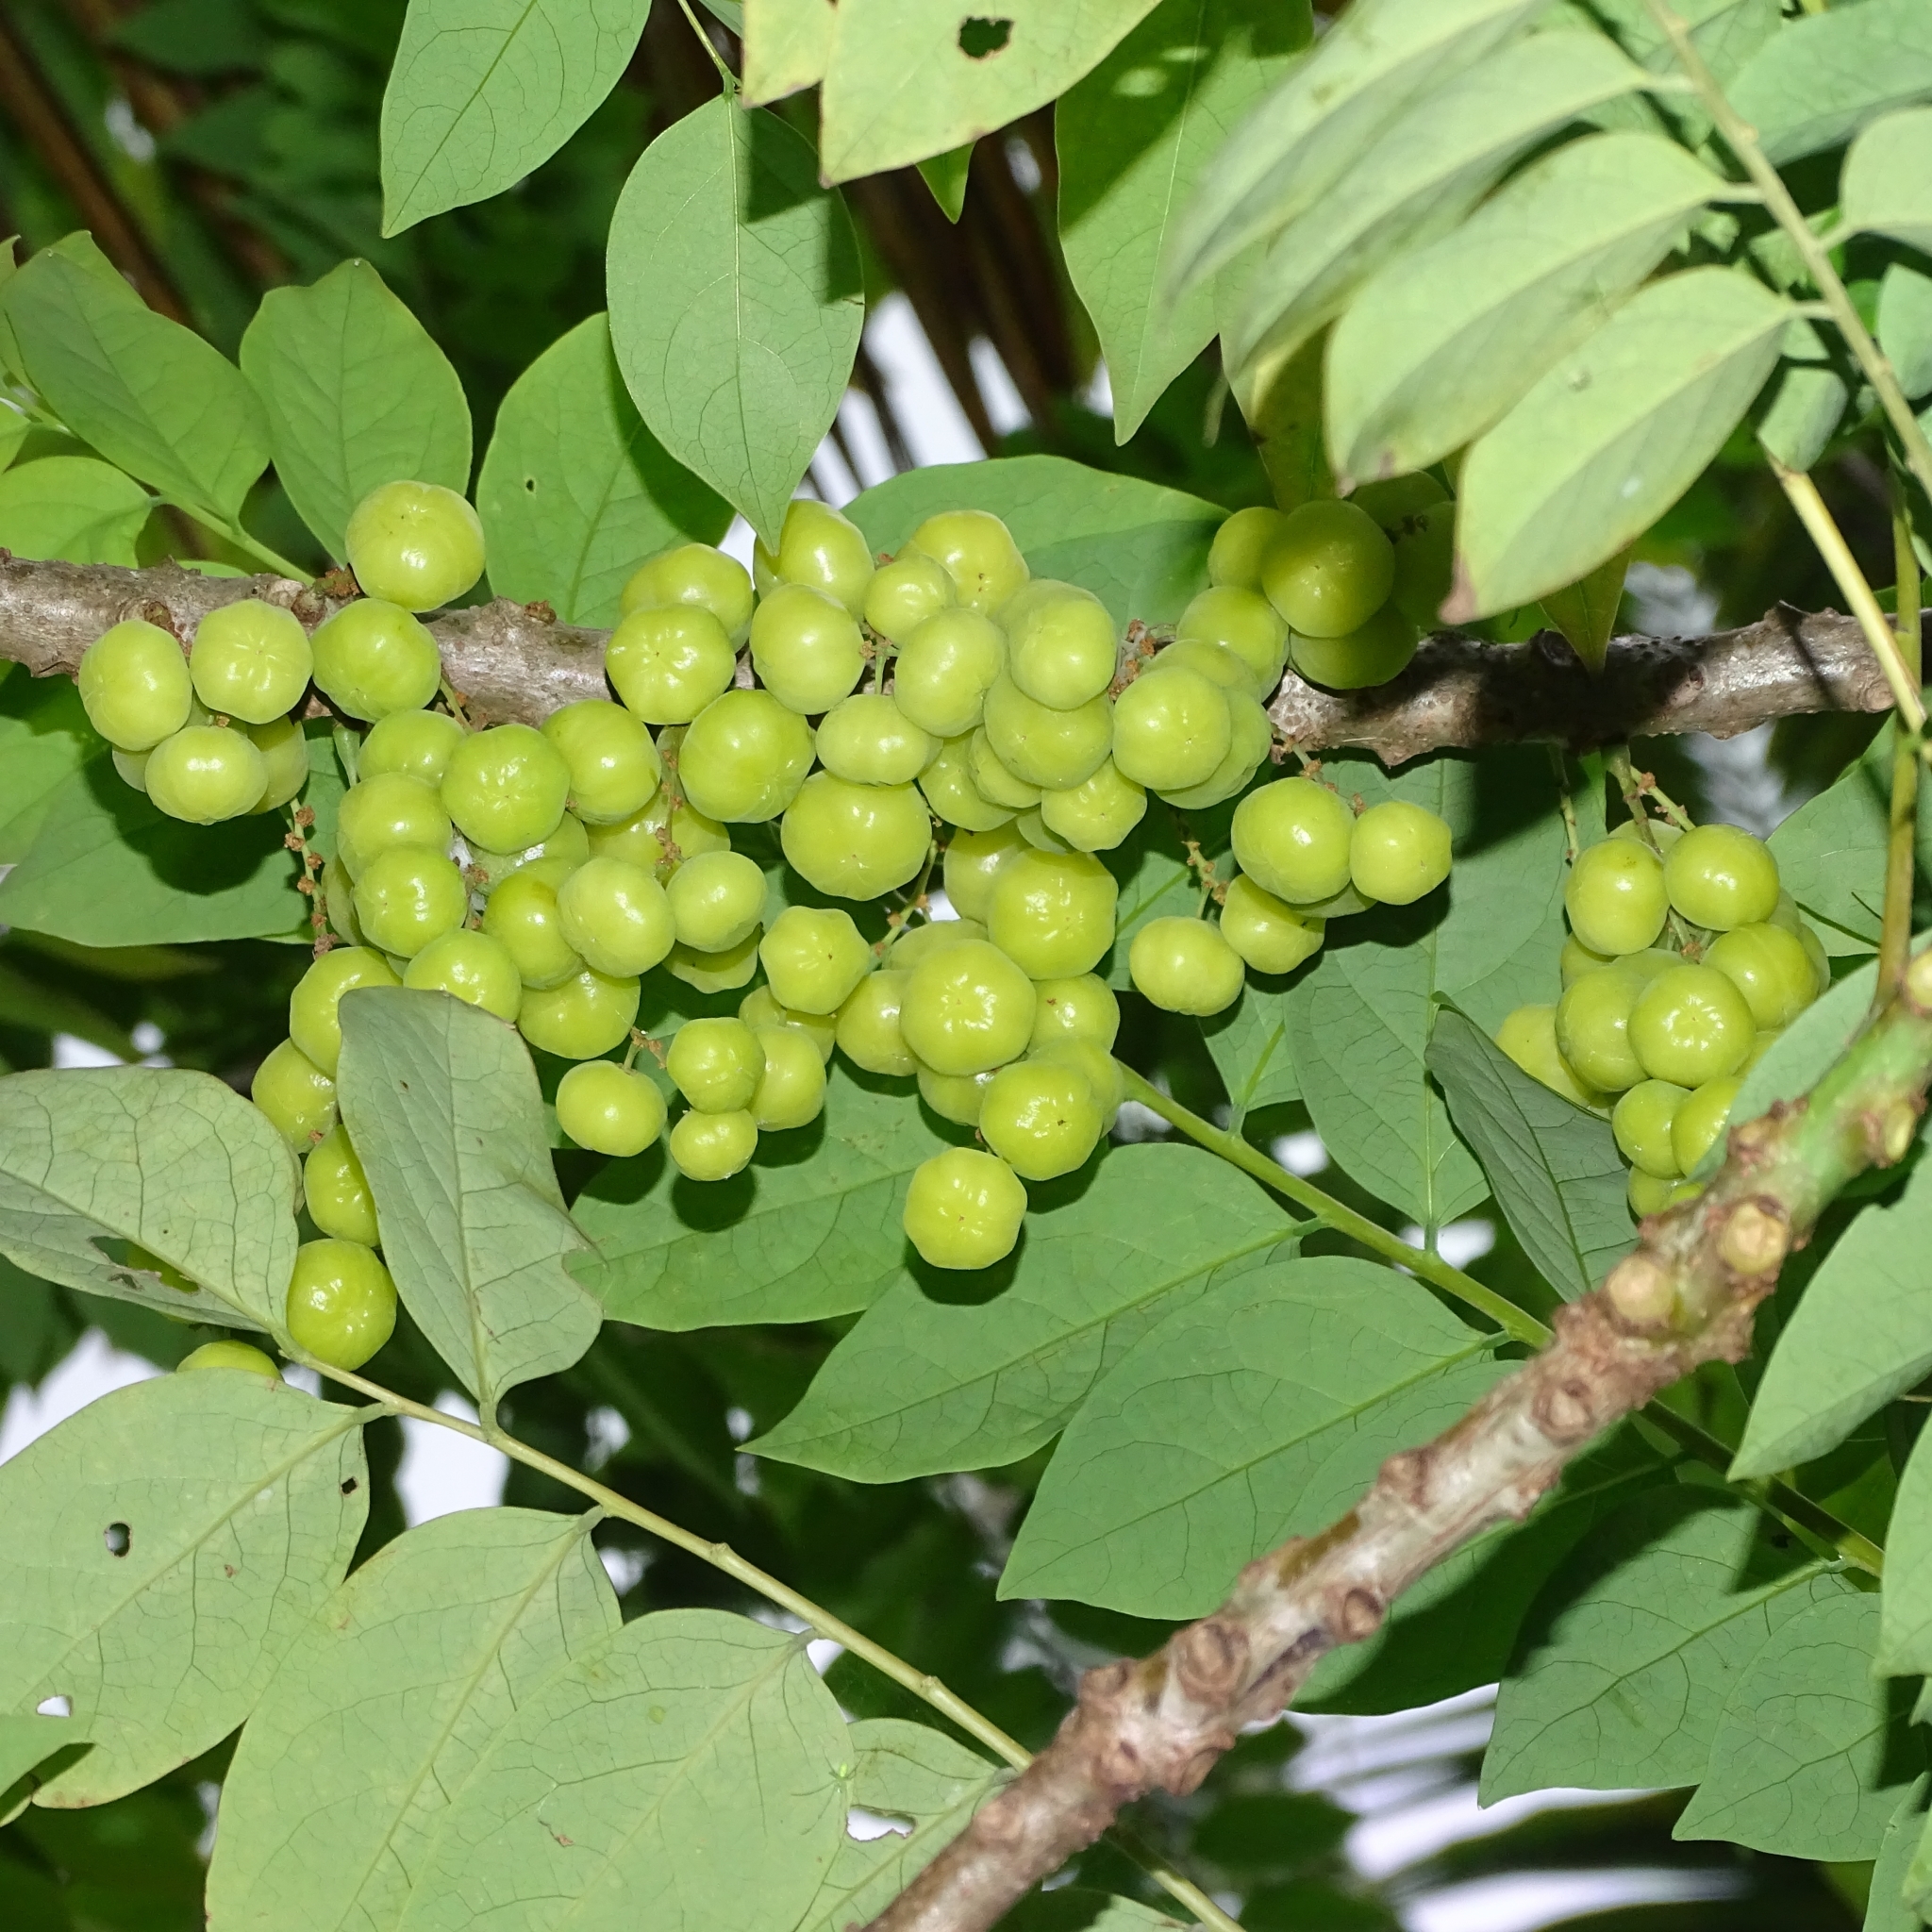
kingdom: Plantae
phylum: Tracheophyta
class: Magnoliopsida
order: Malpighiales
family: Phyllanthaceae
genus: Phyllanthus
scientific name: Phyllanthus acidus
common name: Tahitian gooseberry tree
